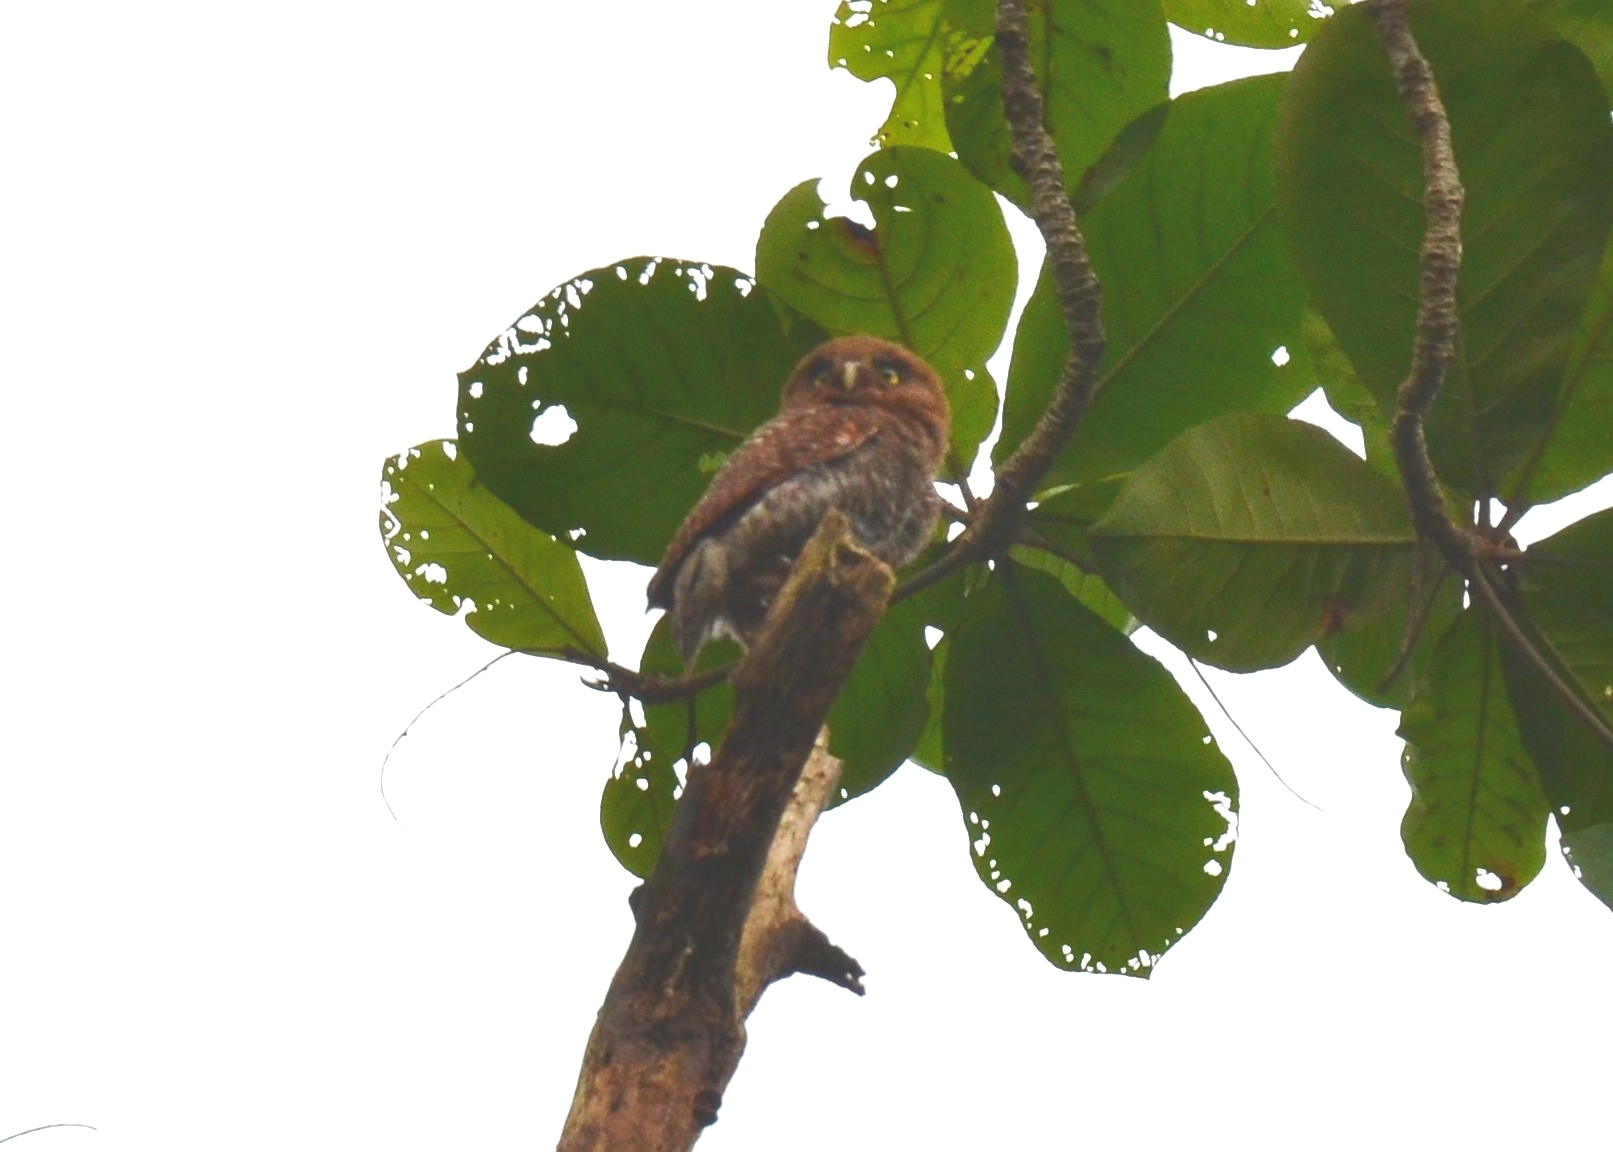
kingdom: Animalia
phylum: Chordata
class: Aves
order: Strigiformes
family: Strigidae
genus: Glaucidium
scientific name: Glaucidium radiatum
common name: Jungle owlet
